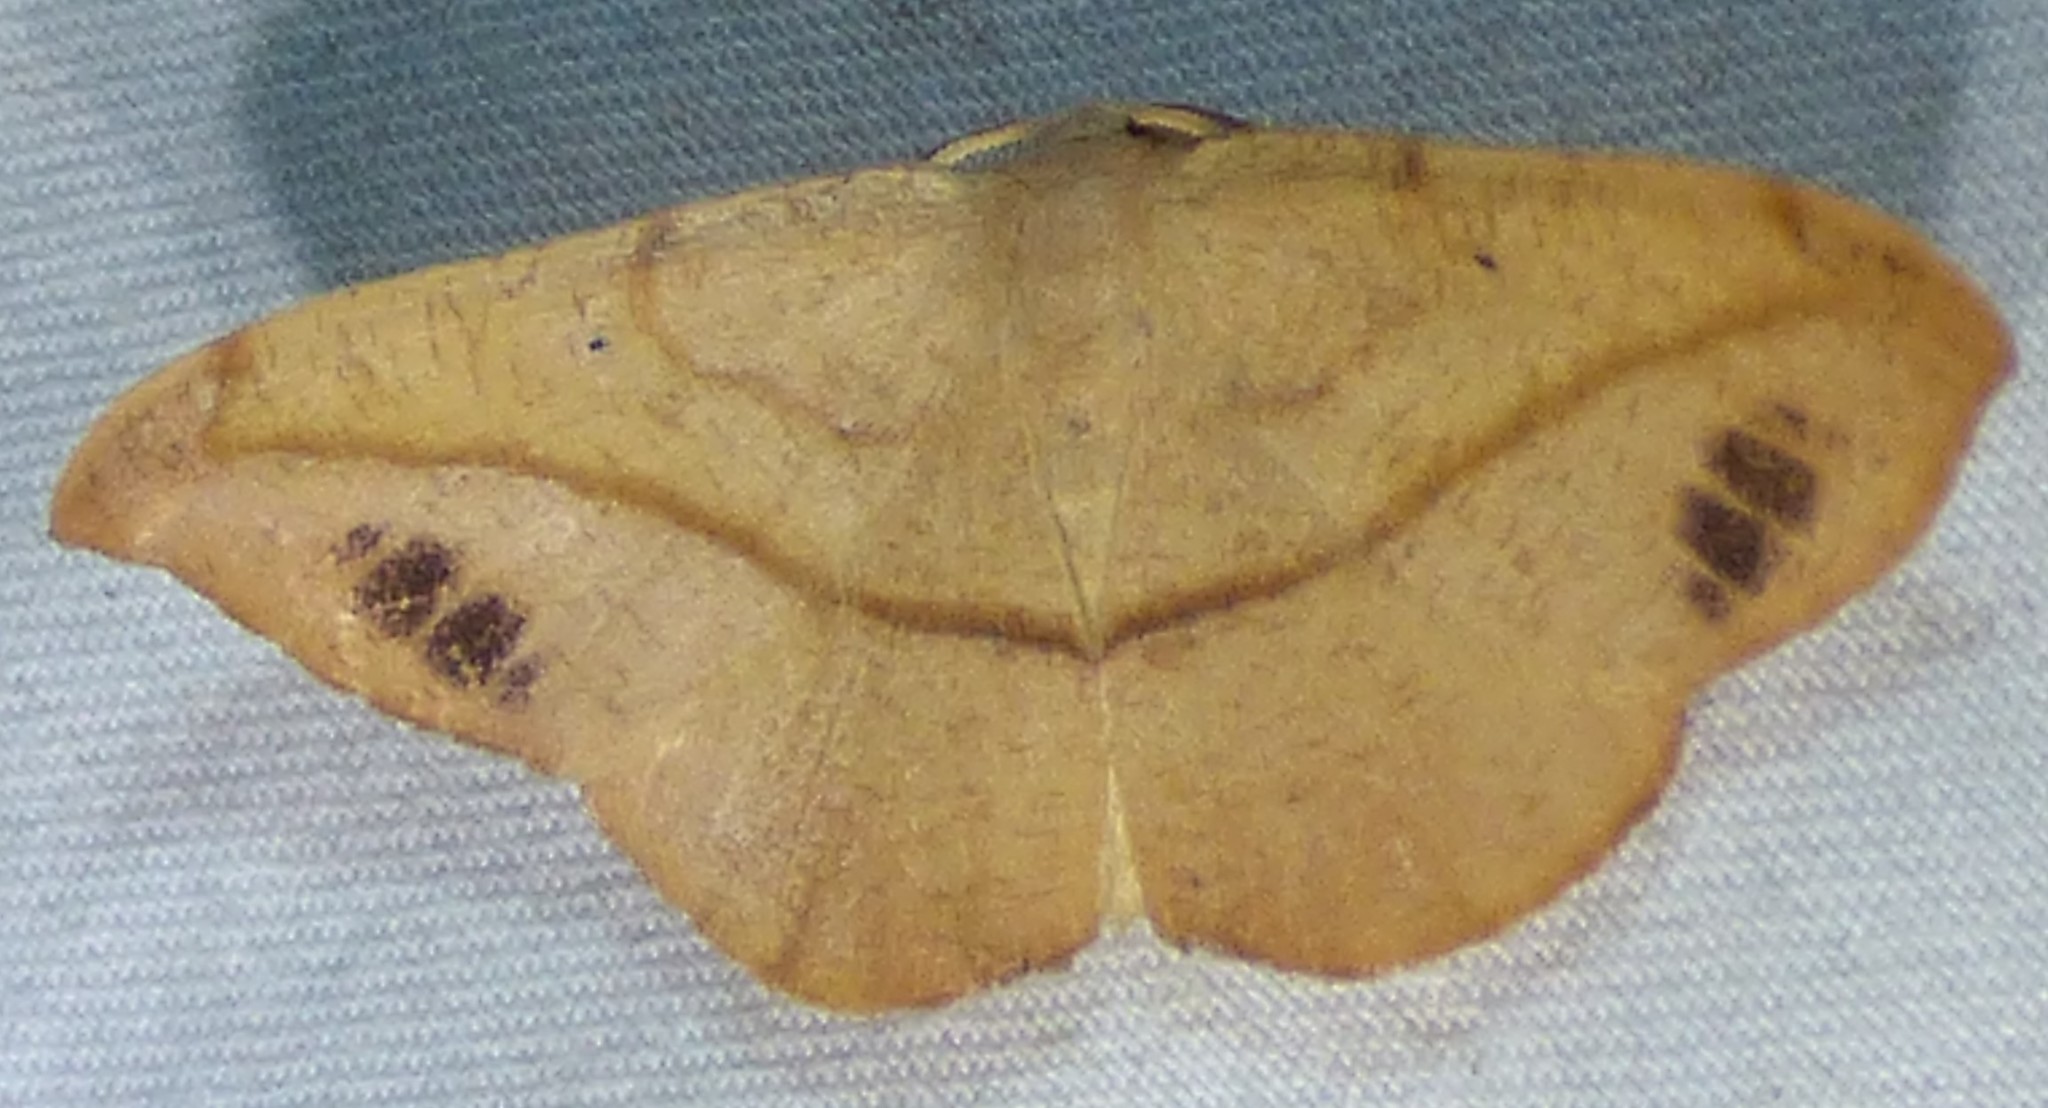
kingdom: Animalia
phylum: Arthropoda
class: Insecta
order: Lepidoptera
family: Geometridae
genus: Patalene
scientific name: Patalene olyzonaria
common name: Juniper geometer moth
